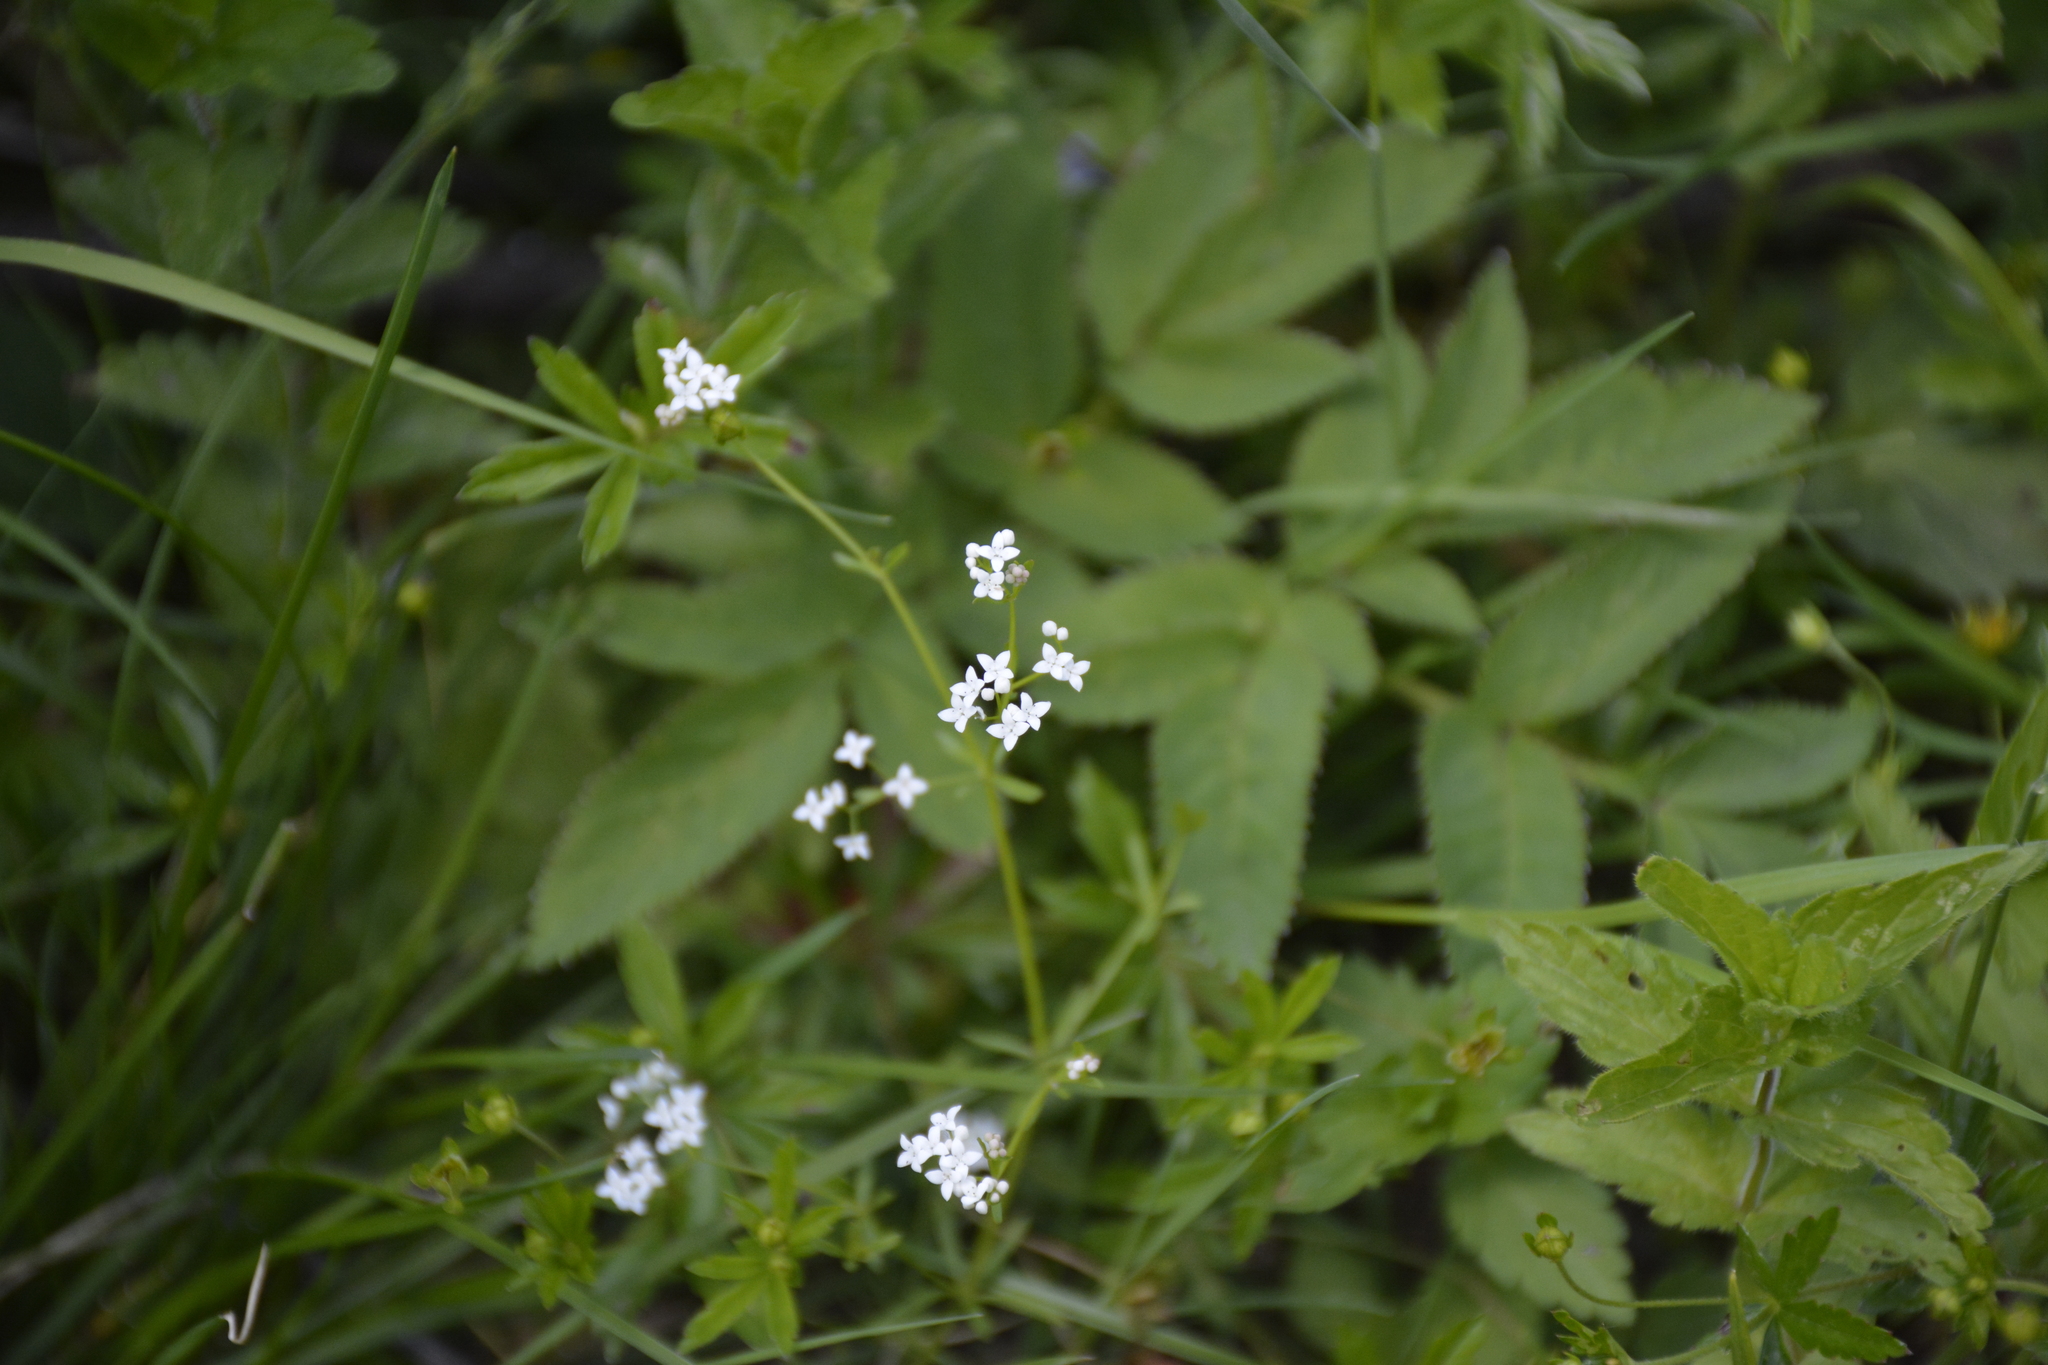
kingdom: Plantae
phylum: Tracheophyta
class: Magnoliopsida
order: Gentianales
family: Rubiaceae
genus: Galium
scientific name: Galium palustre
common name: Common marsh-bedstraw
